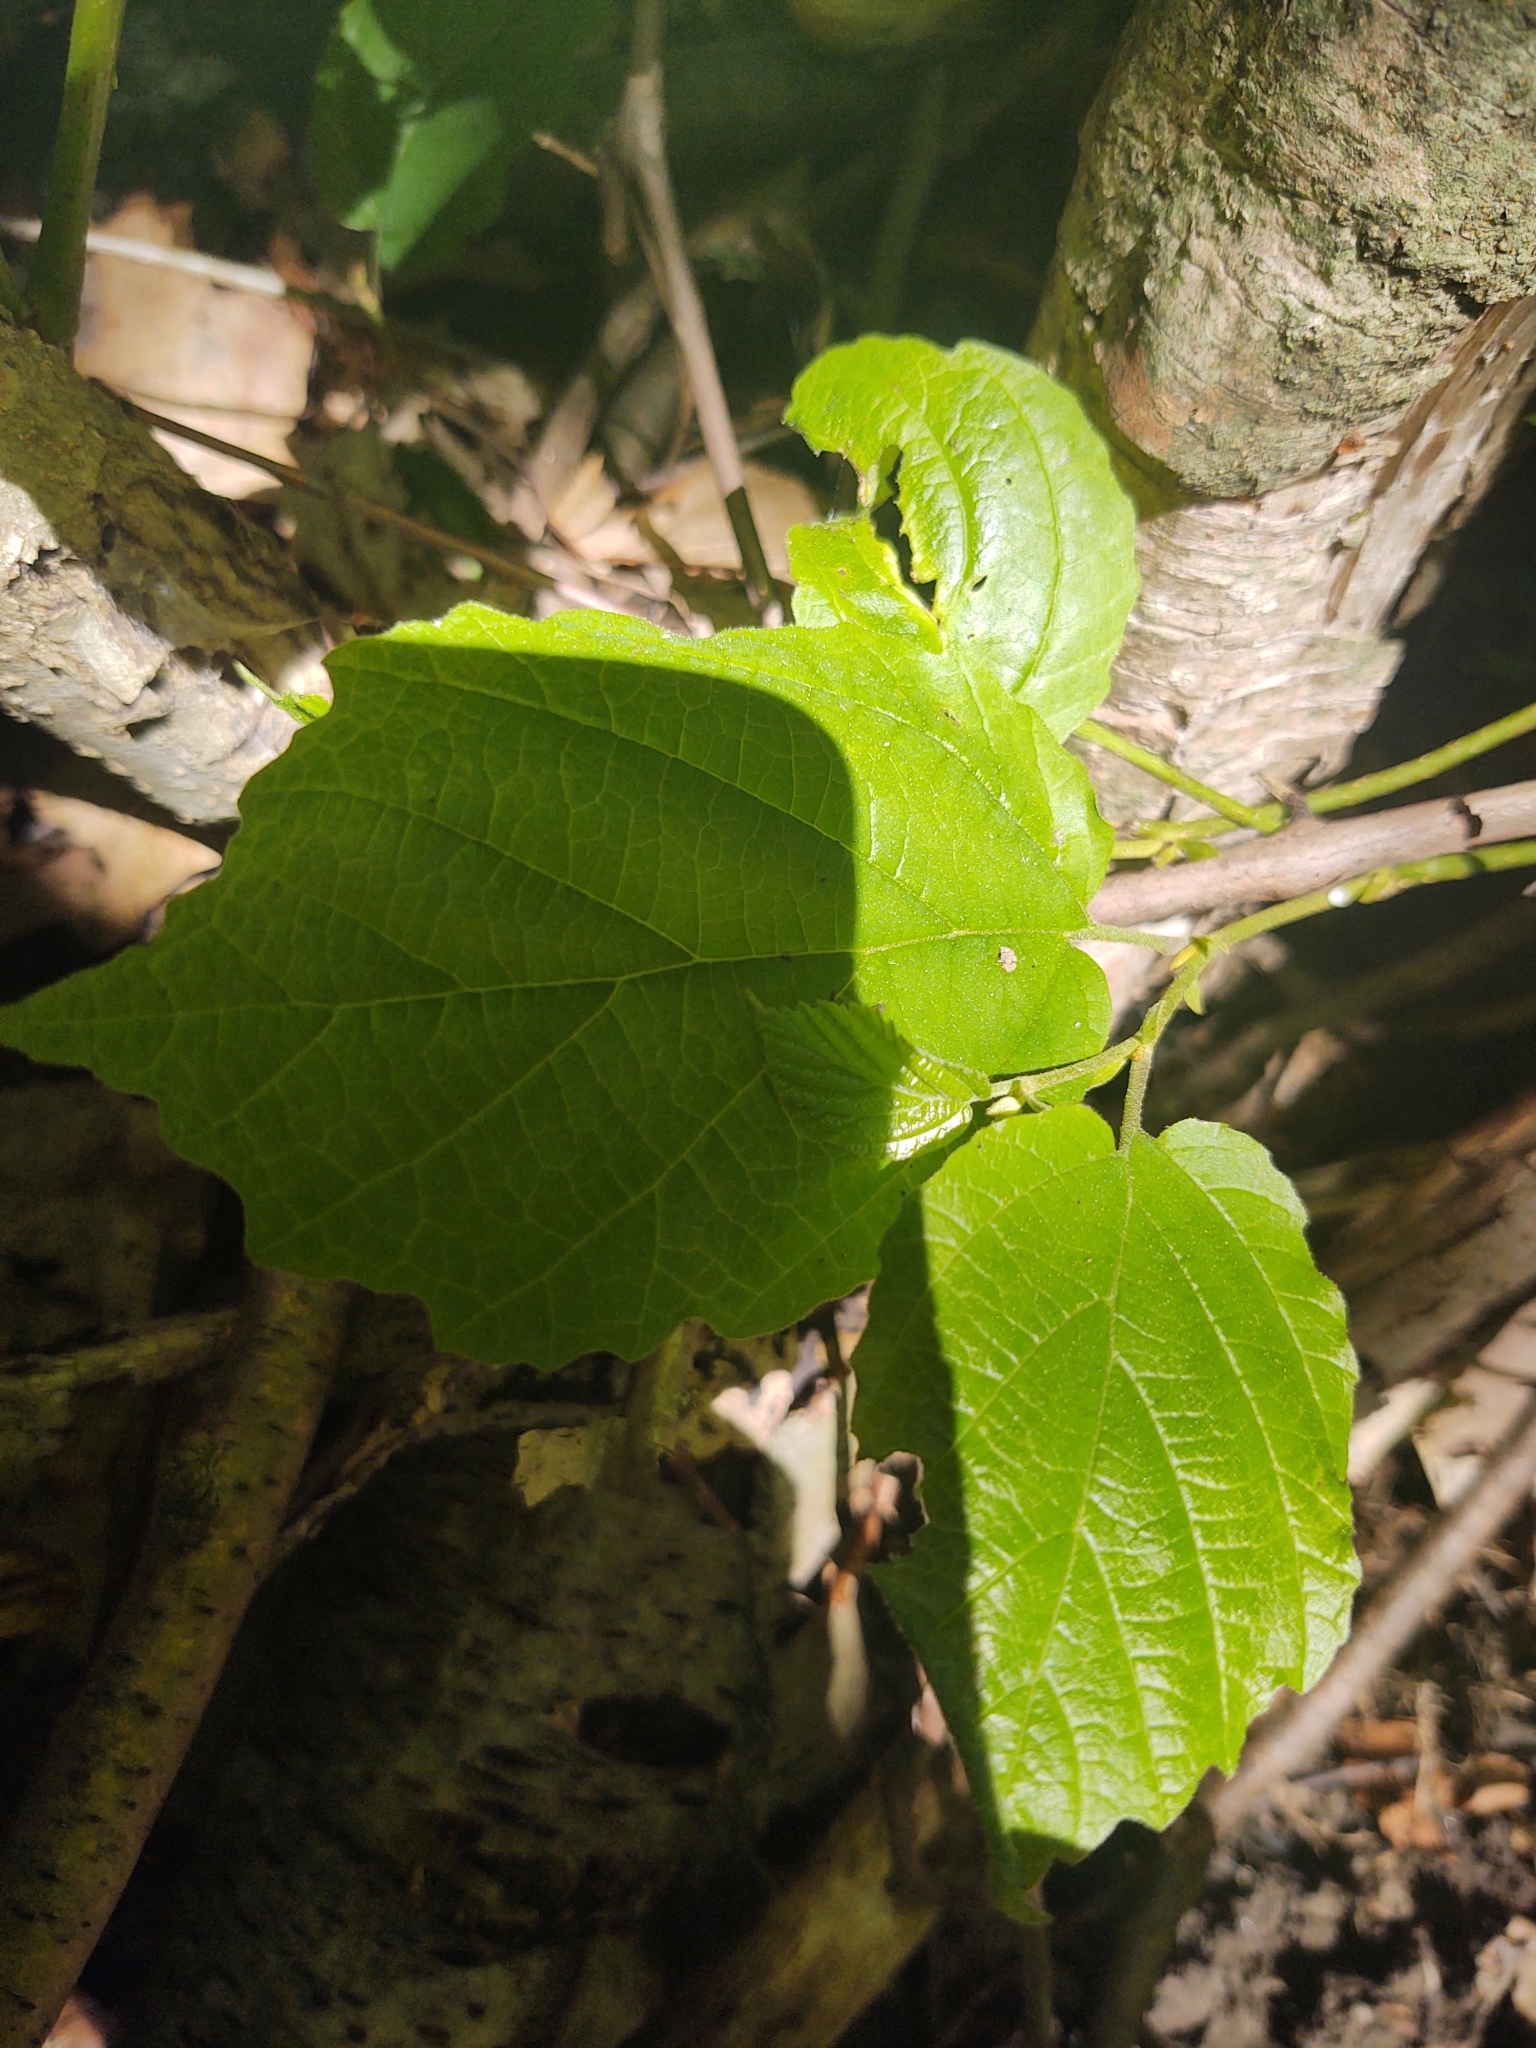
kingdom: Plantae
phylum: Tracheophyta
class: Magnoliopsida
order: Saxifragales
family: Hamamelidaceae
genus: Hamamelis
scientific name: Hamamelis virginiana
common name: Witch-hazel
